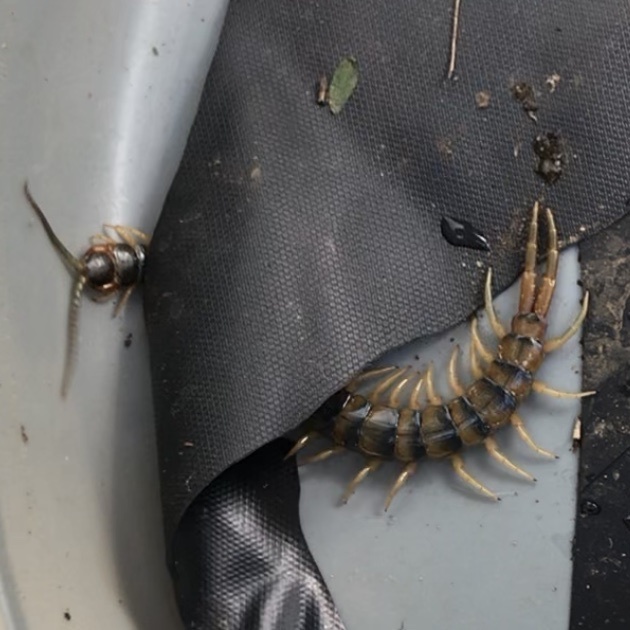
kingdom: Animalia
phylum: Arthropoda
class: Chilopoda
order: Scolopendromorpha
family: Scolopendridae
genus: Ethmostigmus
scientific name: Ethmostigmus rubripes
